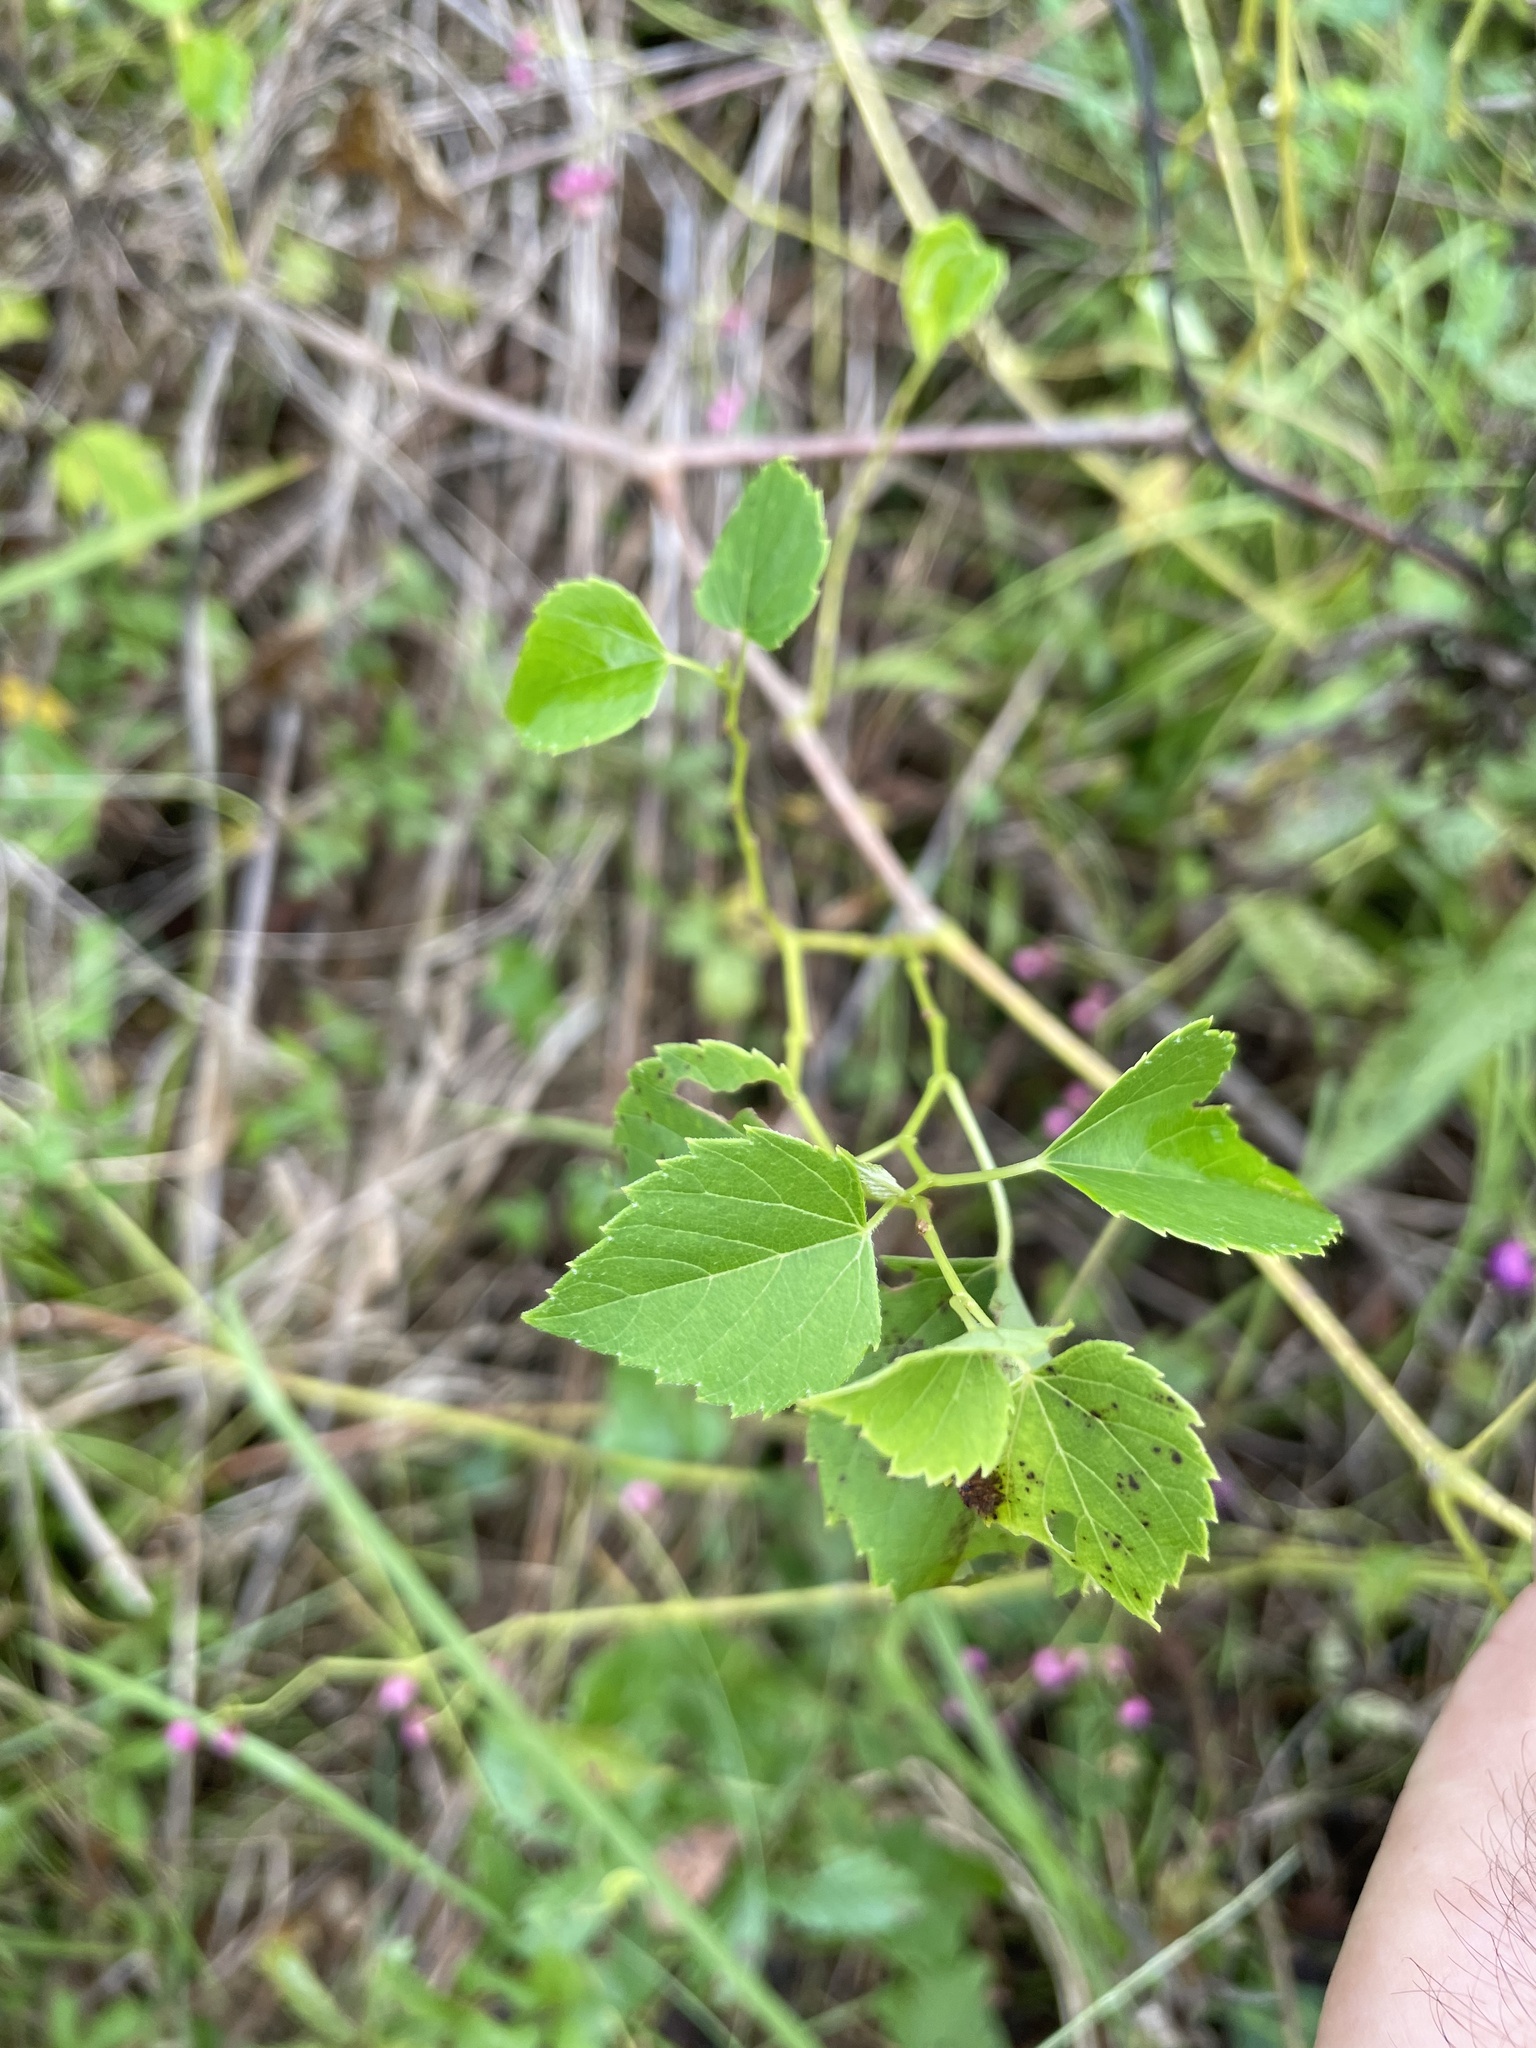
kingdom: Plantae
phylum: Tracheophyta
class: Magnoliopsida
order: Vitales
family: Vitaceae
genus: Ampelopsis
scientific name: Ampelopsis cordata
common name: Heart-leaf ampelopsis
